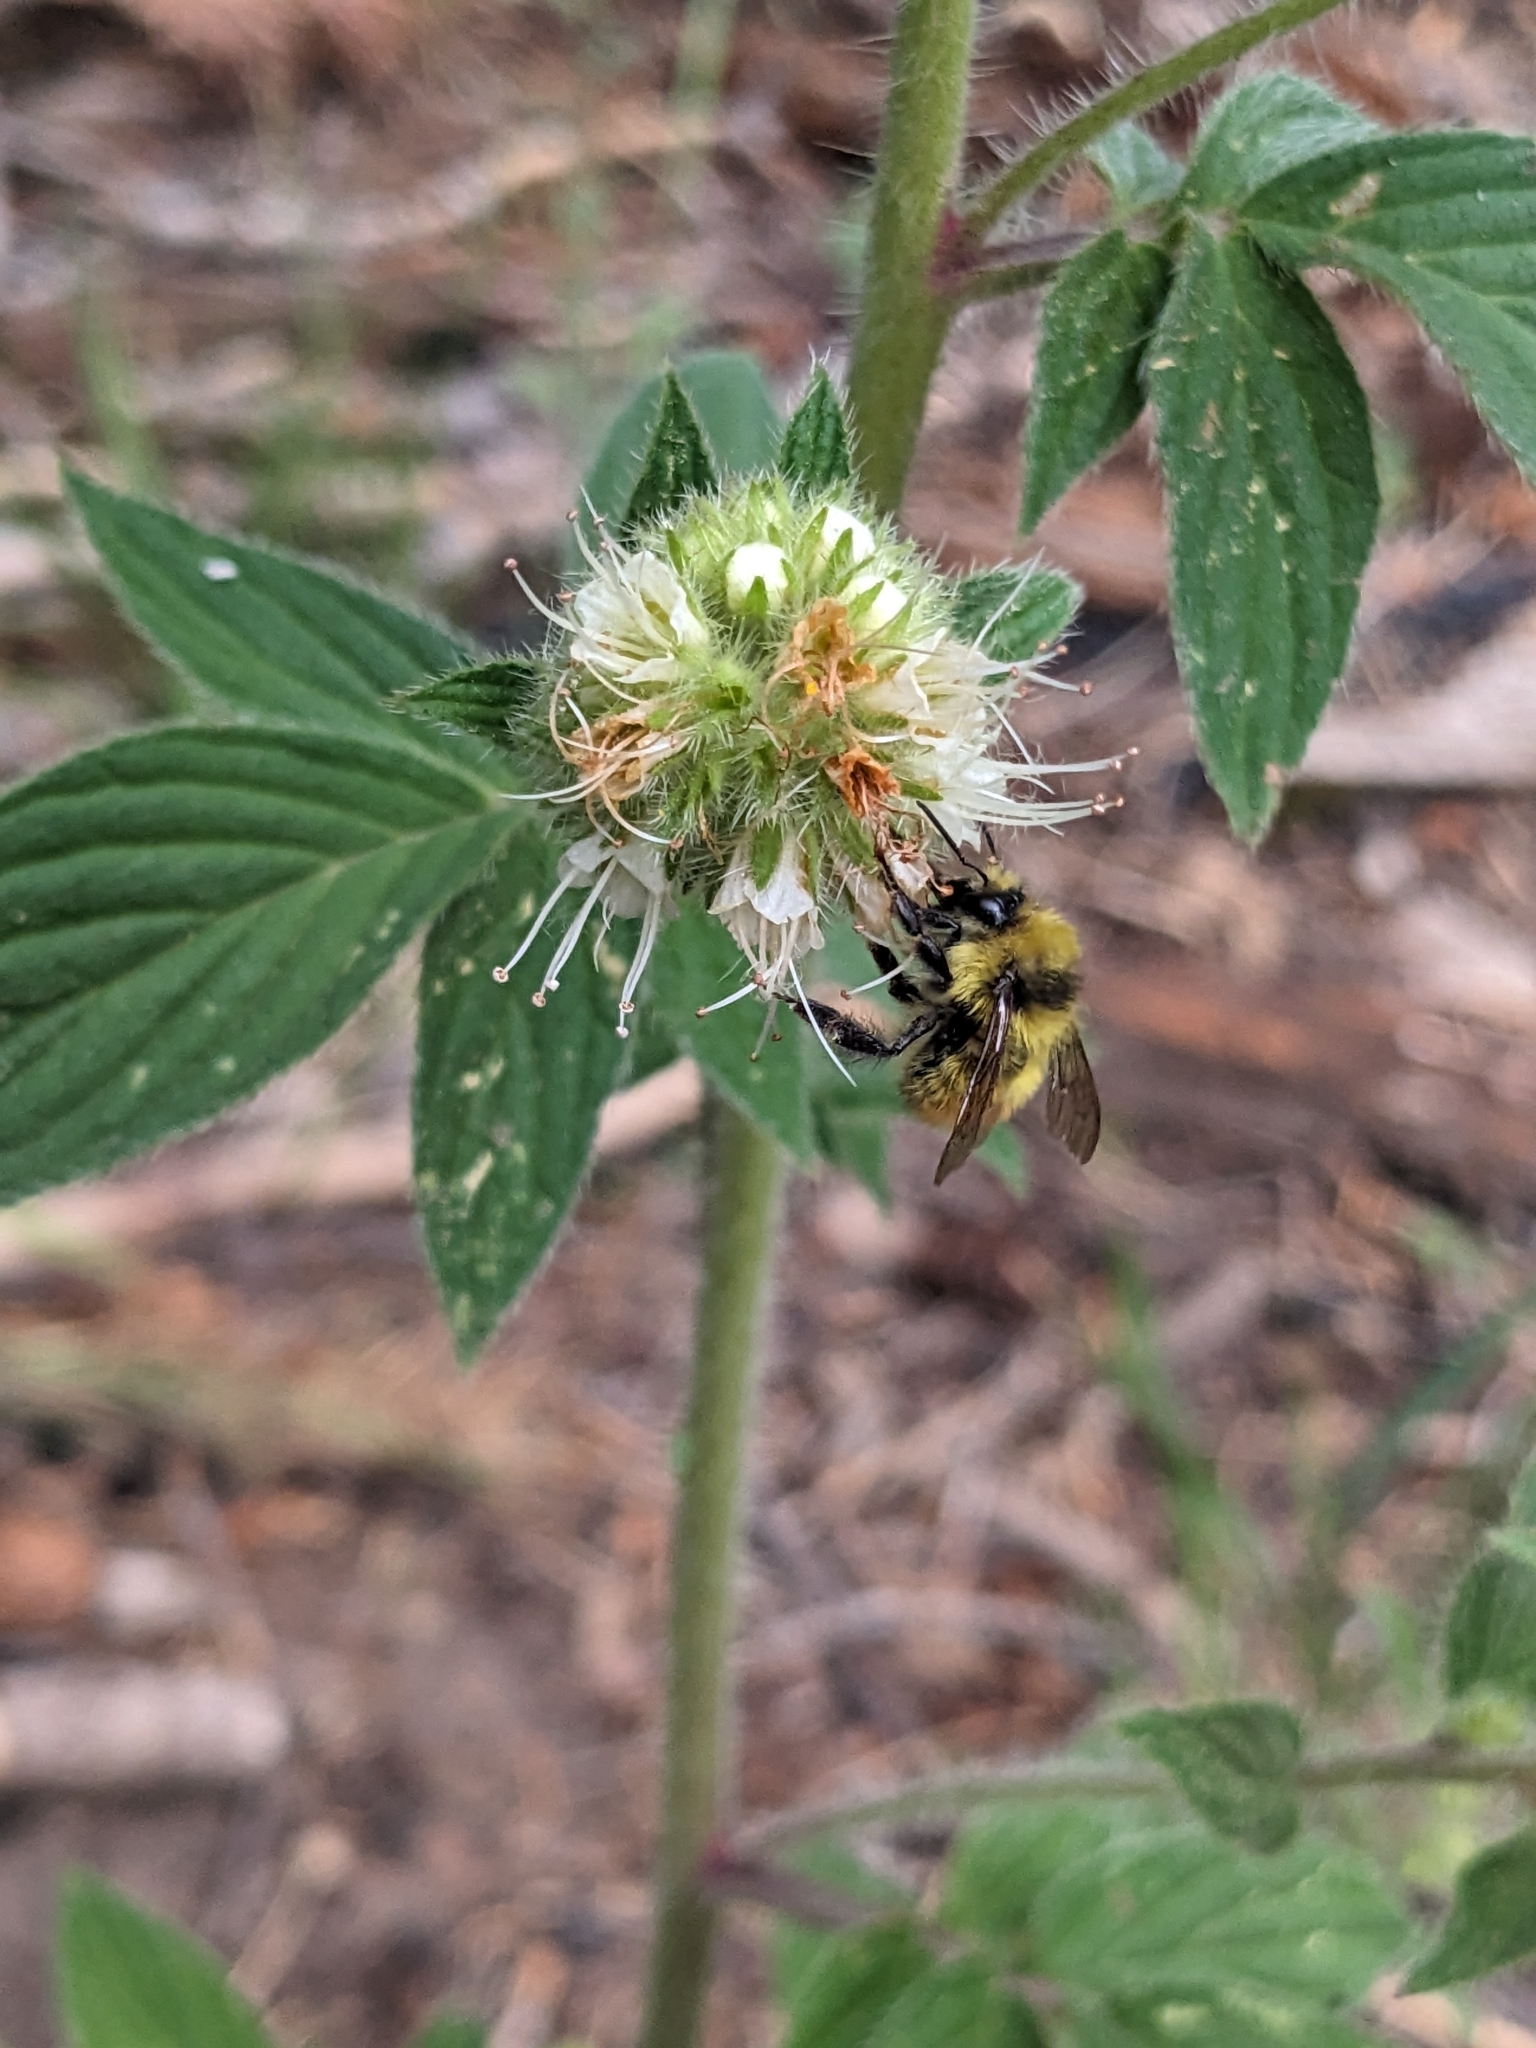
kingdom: Animalia
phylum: Arthropoda
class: Insecta
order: Hymenoptera
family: Apidae
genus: Bombus
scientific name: Bombus centralis
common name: Central bumble bee
